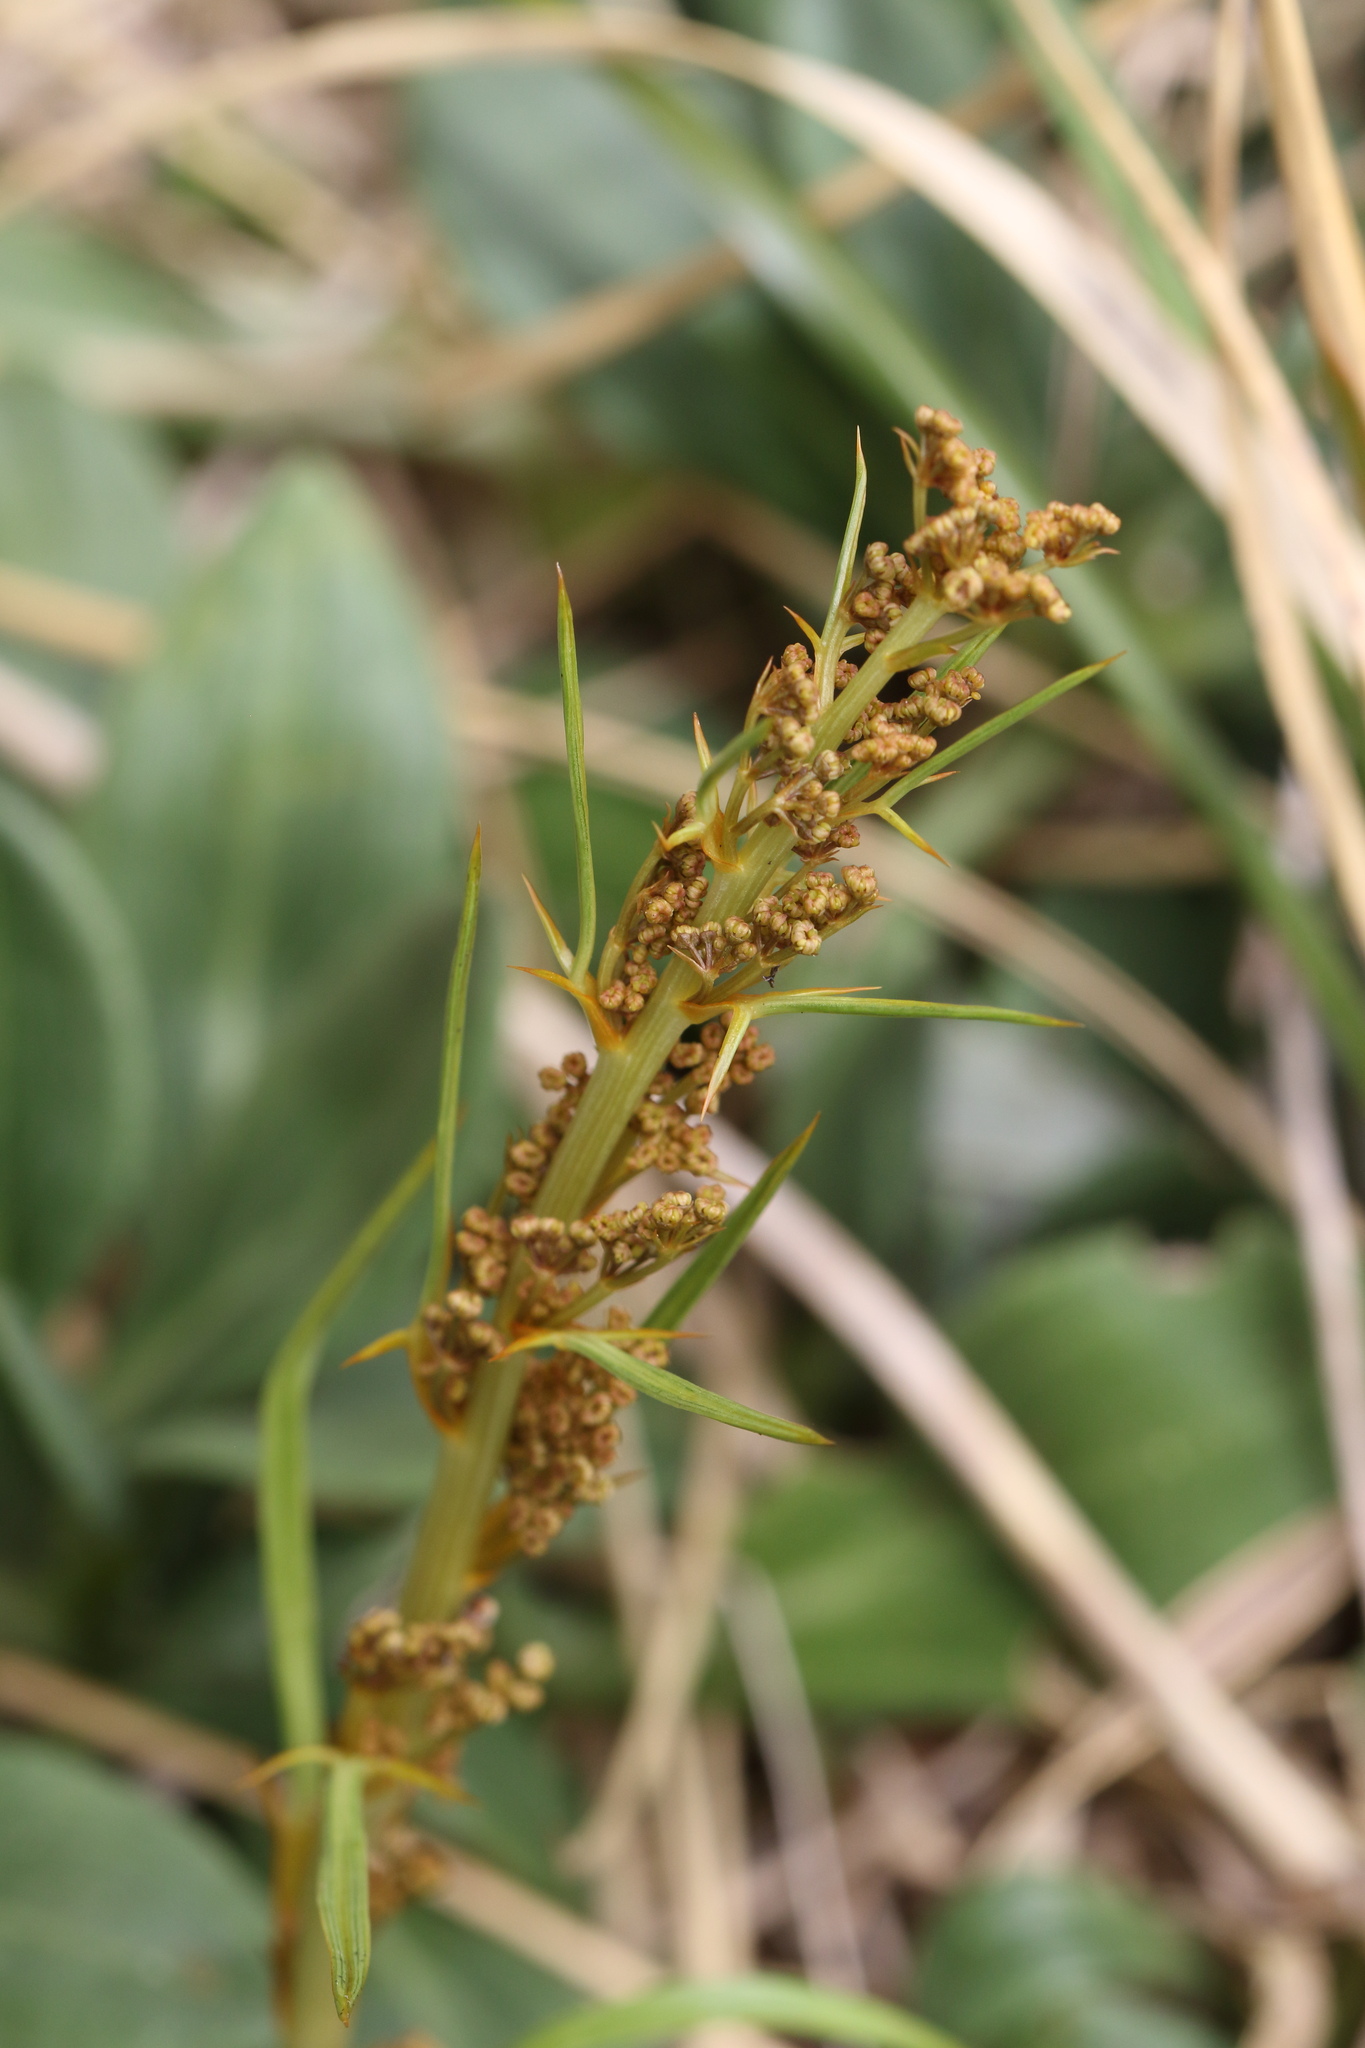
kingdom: Plantae
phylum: Tracheophyta
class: Magnoliopsida
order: Apiales
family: Apiaceae
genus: Aciphylla
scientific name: Aciphylla crenulata
